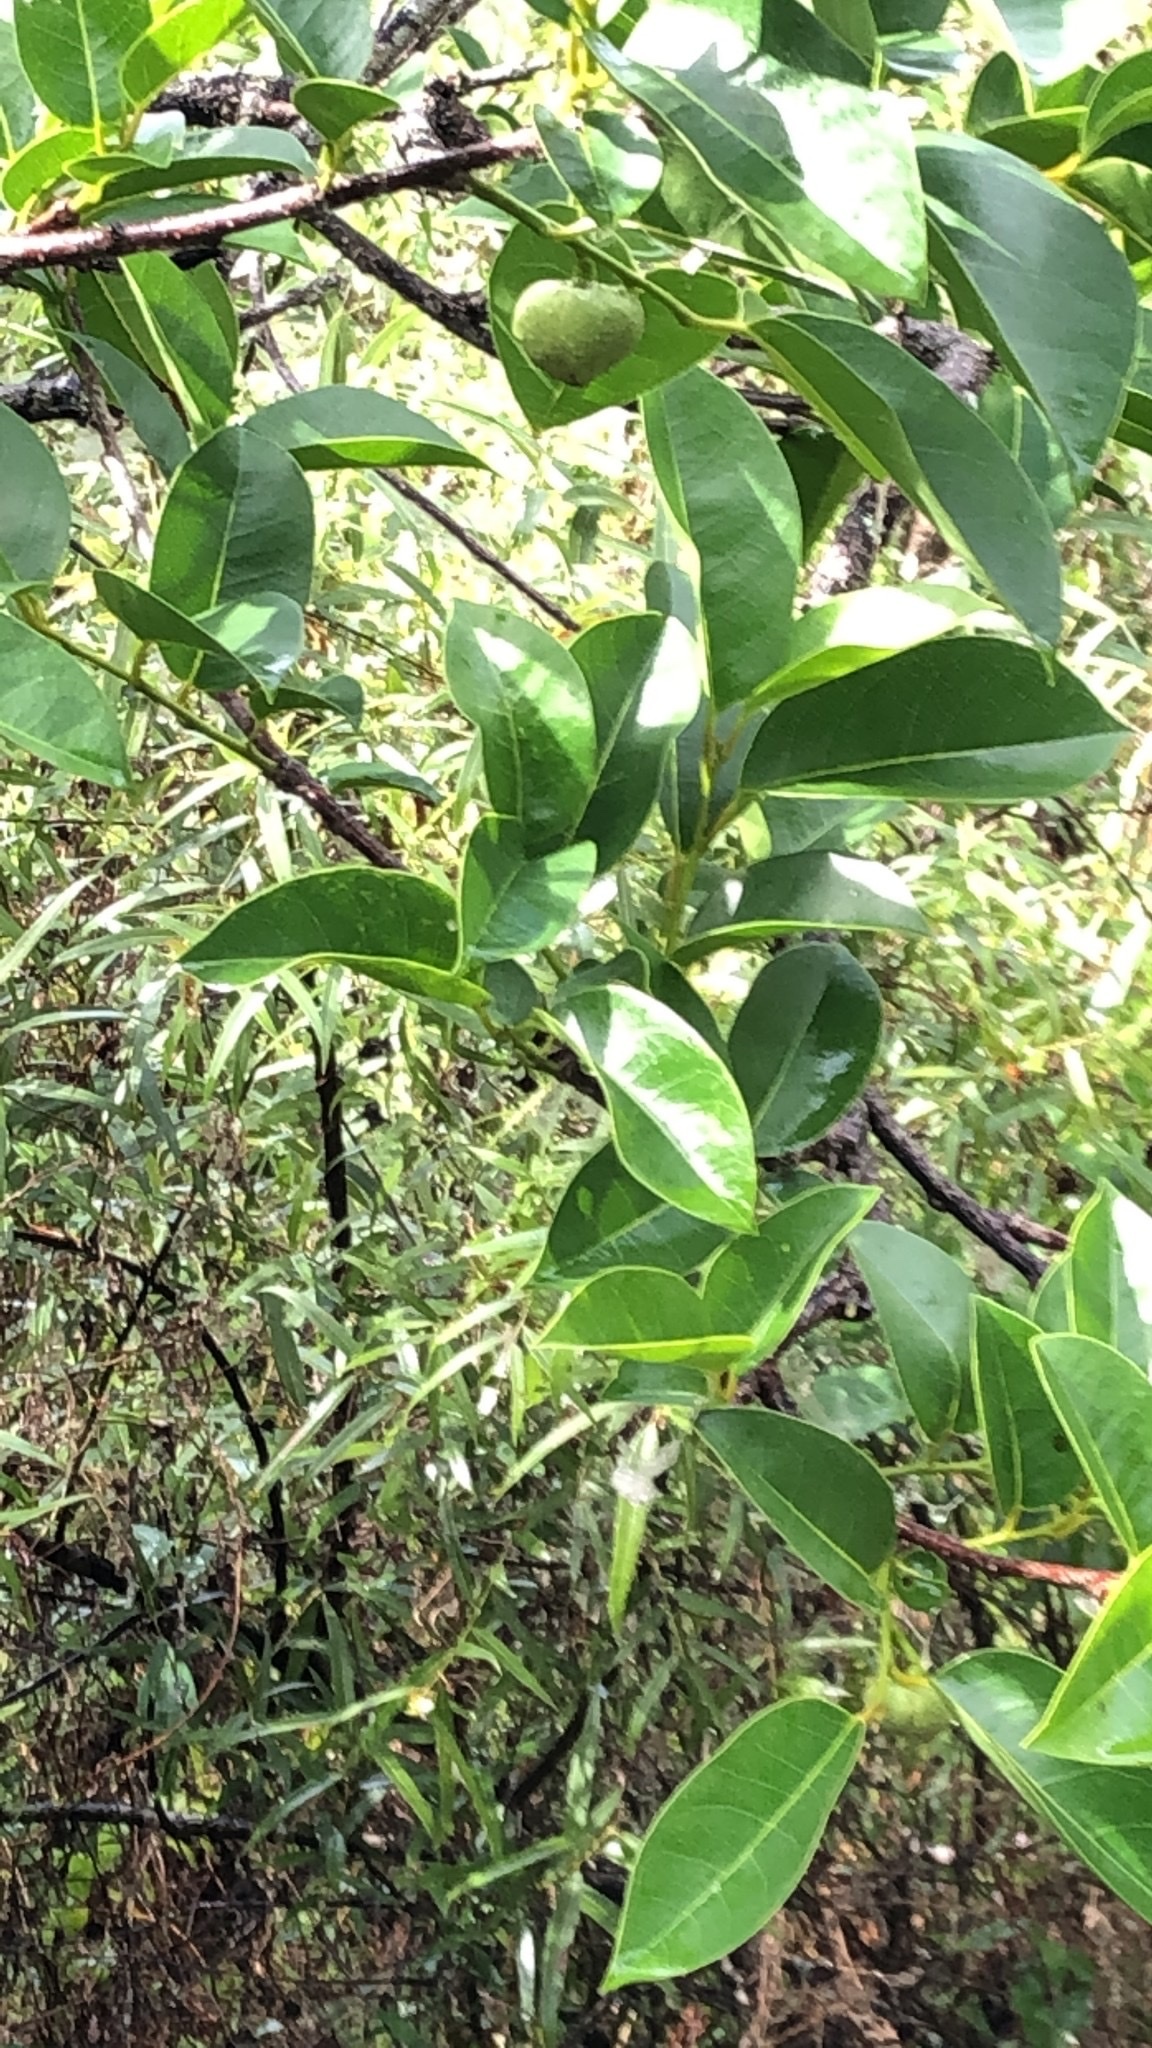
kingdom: Plantae
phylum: Tracheophyta
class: Magnoliopsida
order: Magnoliales
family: Annonaceae
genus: Annona
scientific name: Annona glabra
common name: Monkey apple
